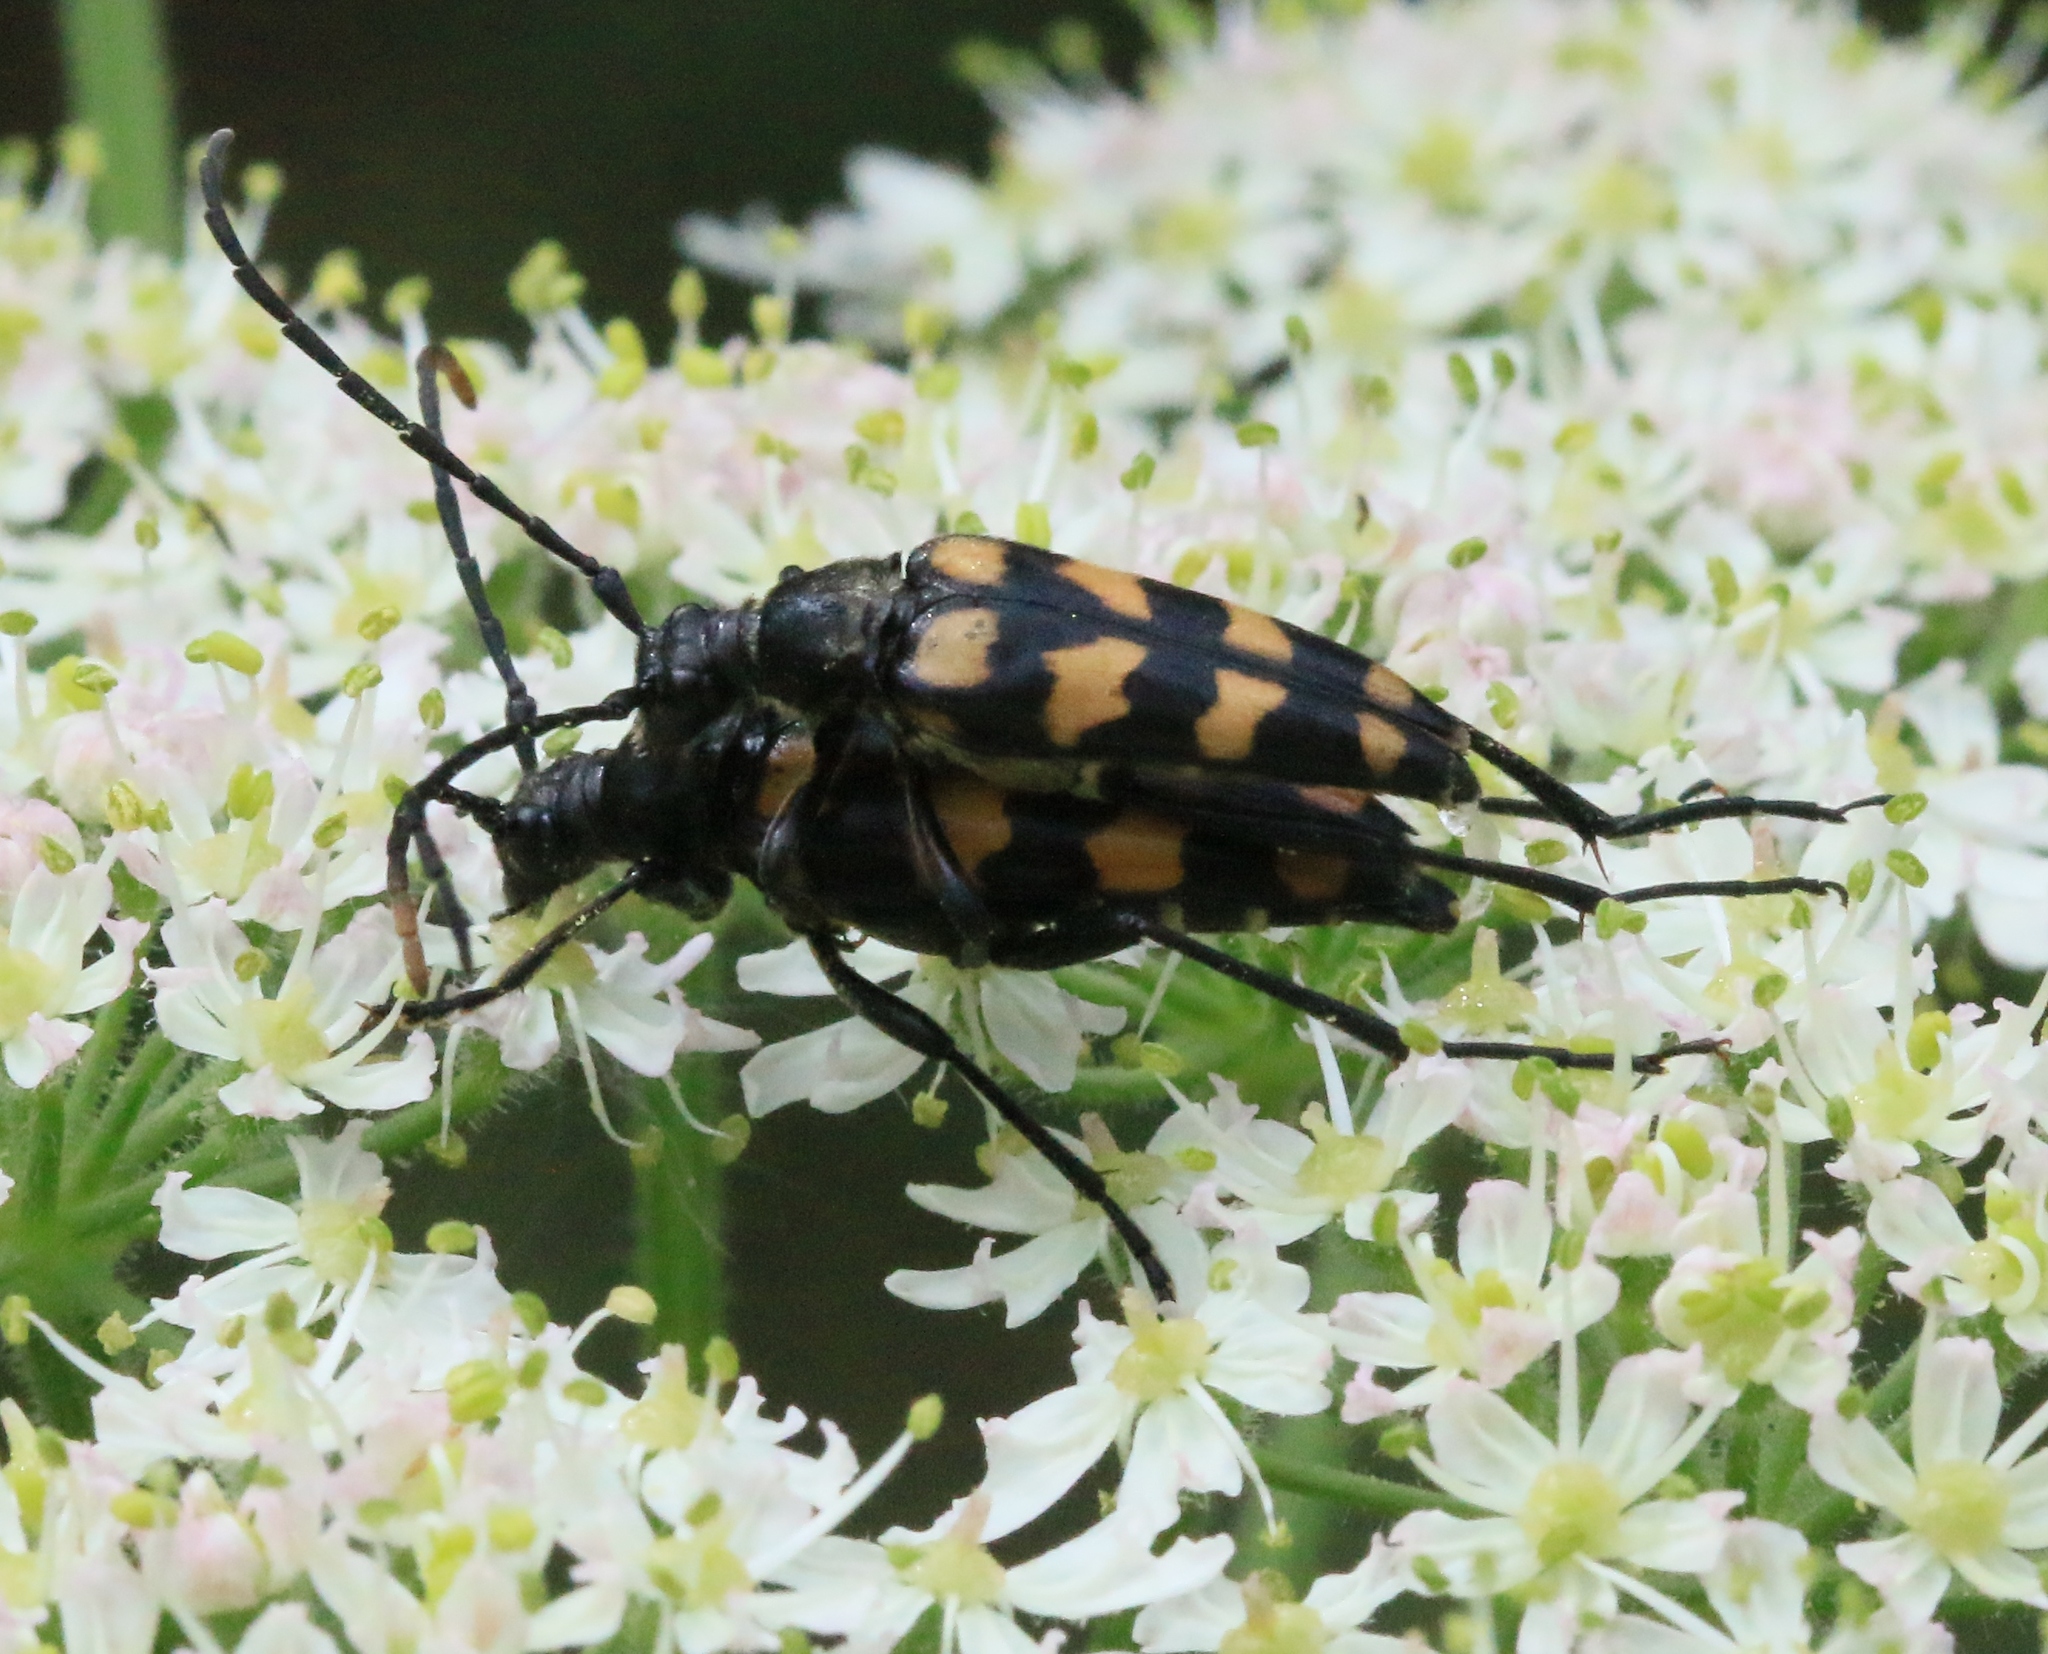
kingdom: Animalia
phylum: Arthropoda
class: Insecta
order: Coleoptera
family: Cerambycidae
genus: Leptura
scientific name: Leptura quadrifasciata
